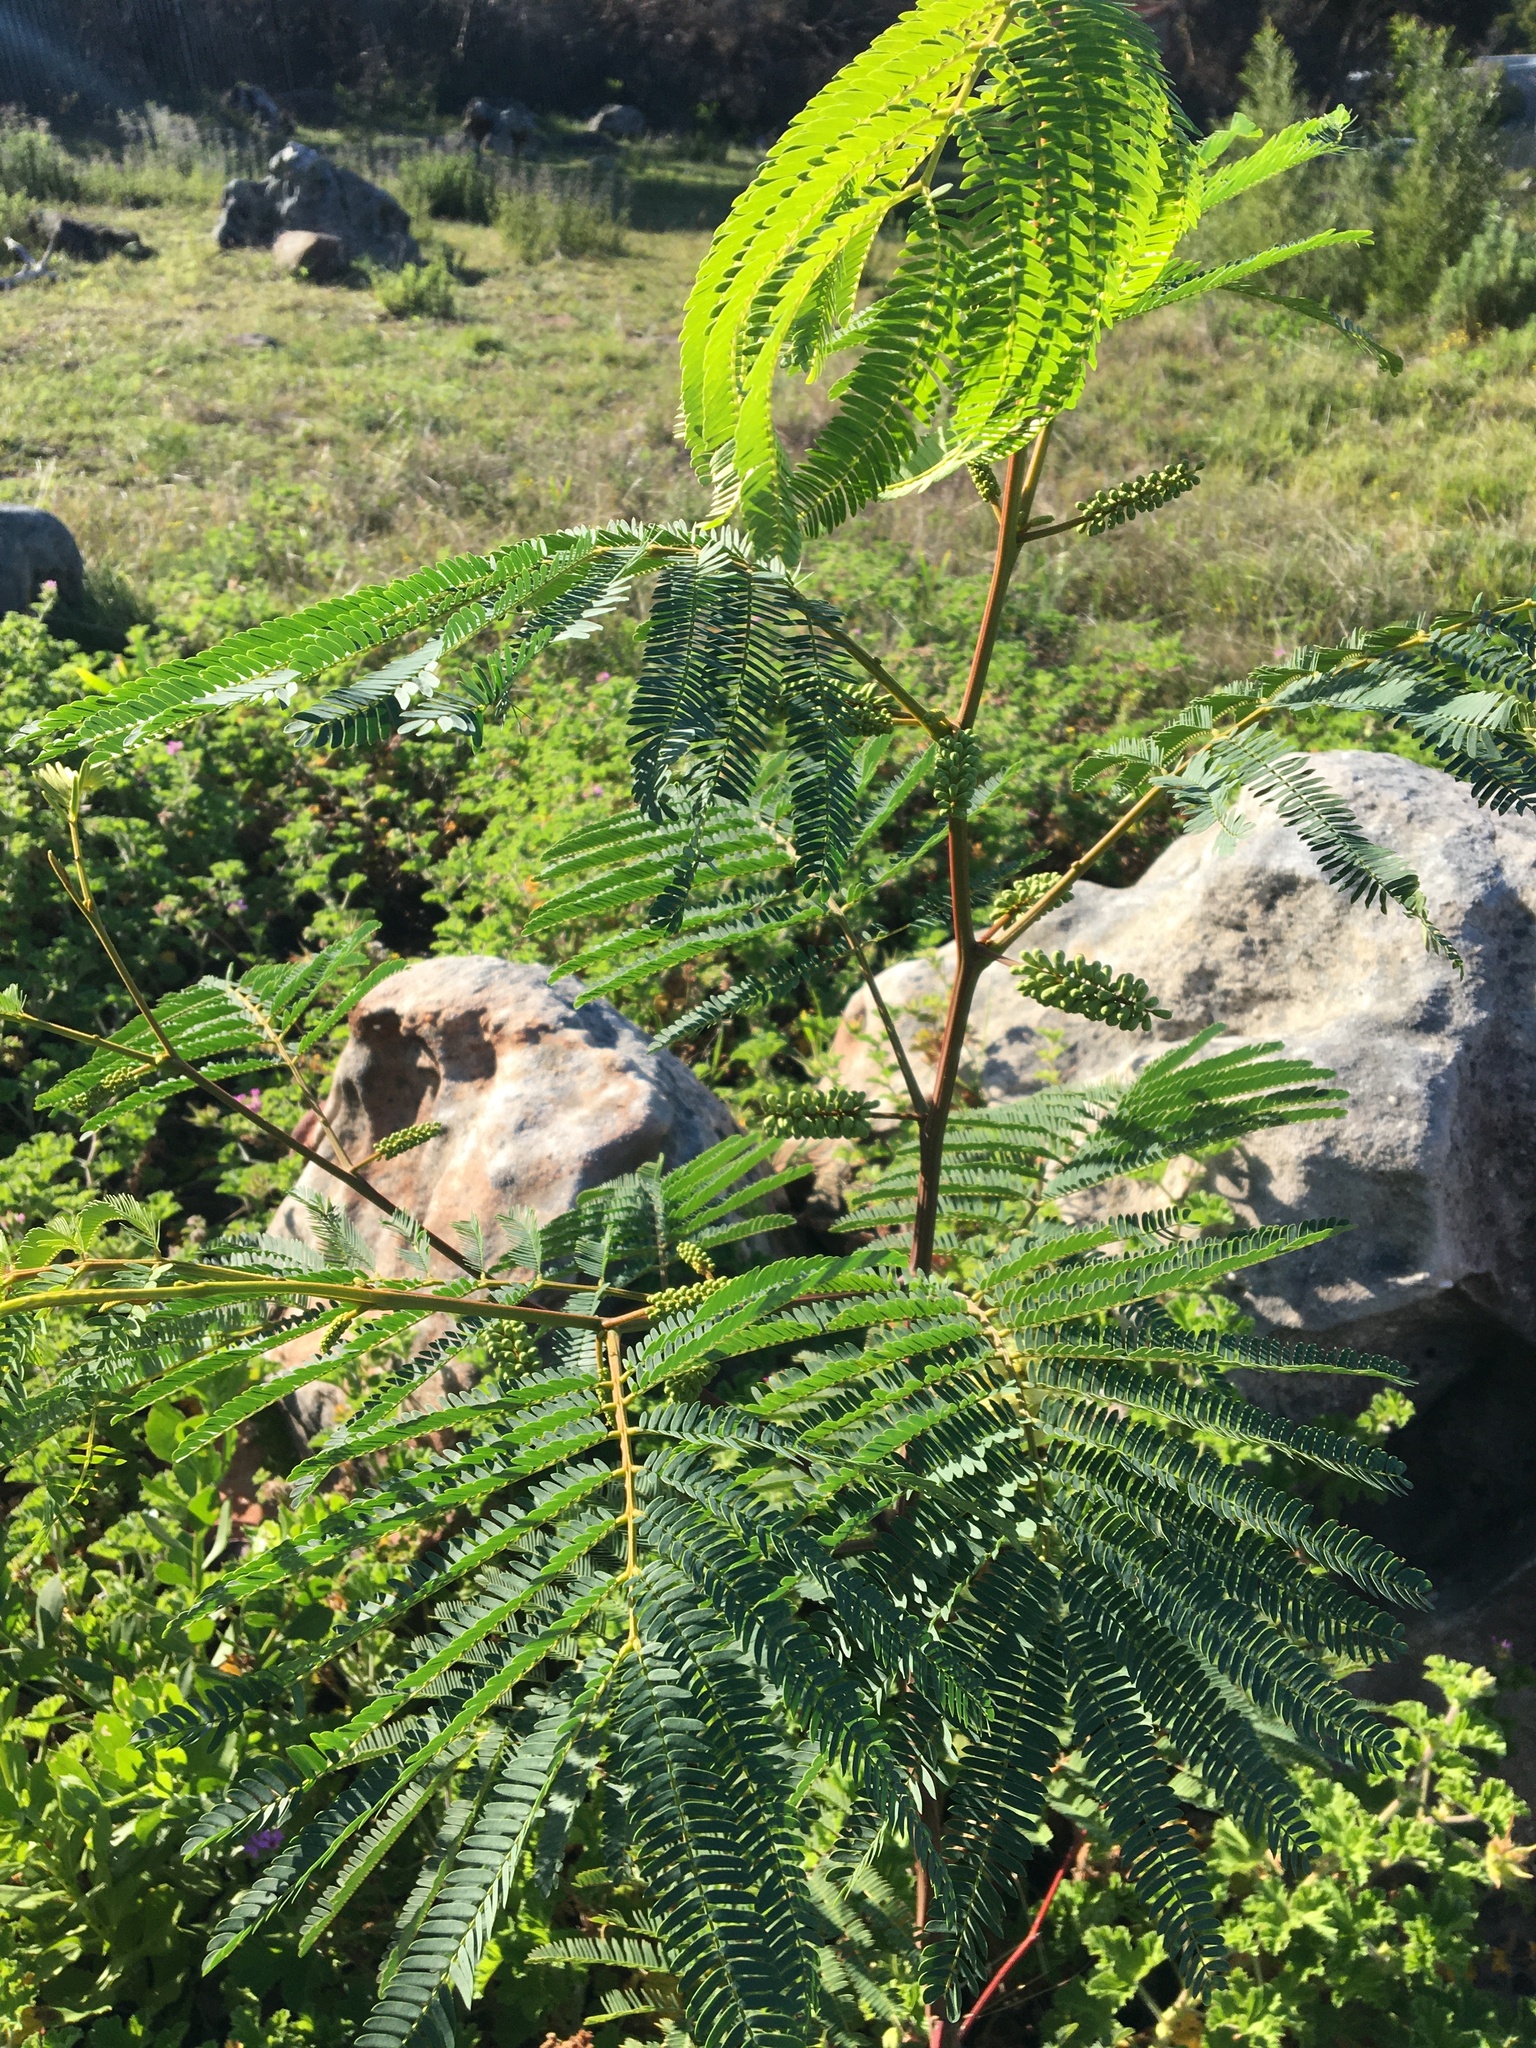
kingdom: Plantae
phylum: Tracheophyta
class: Magnoliopsida
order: Fabales
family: Fabaceae
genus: Paraserianthes
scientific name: Paraserianthes lophantha
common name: Plume albizia
